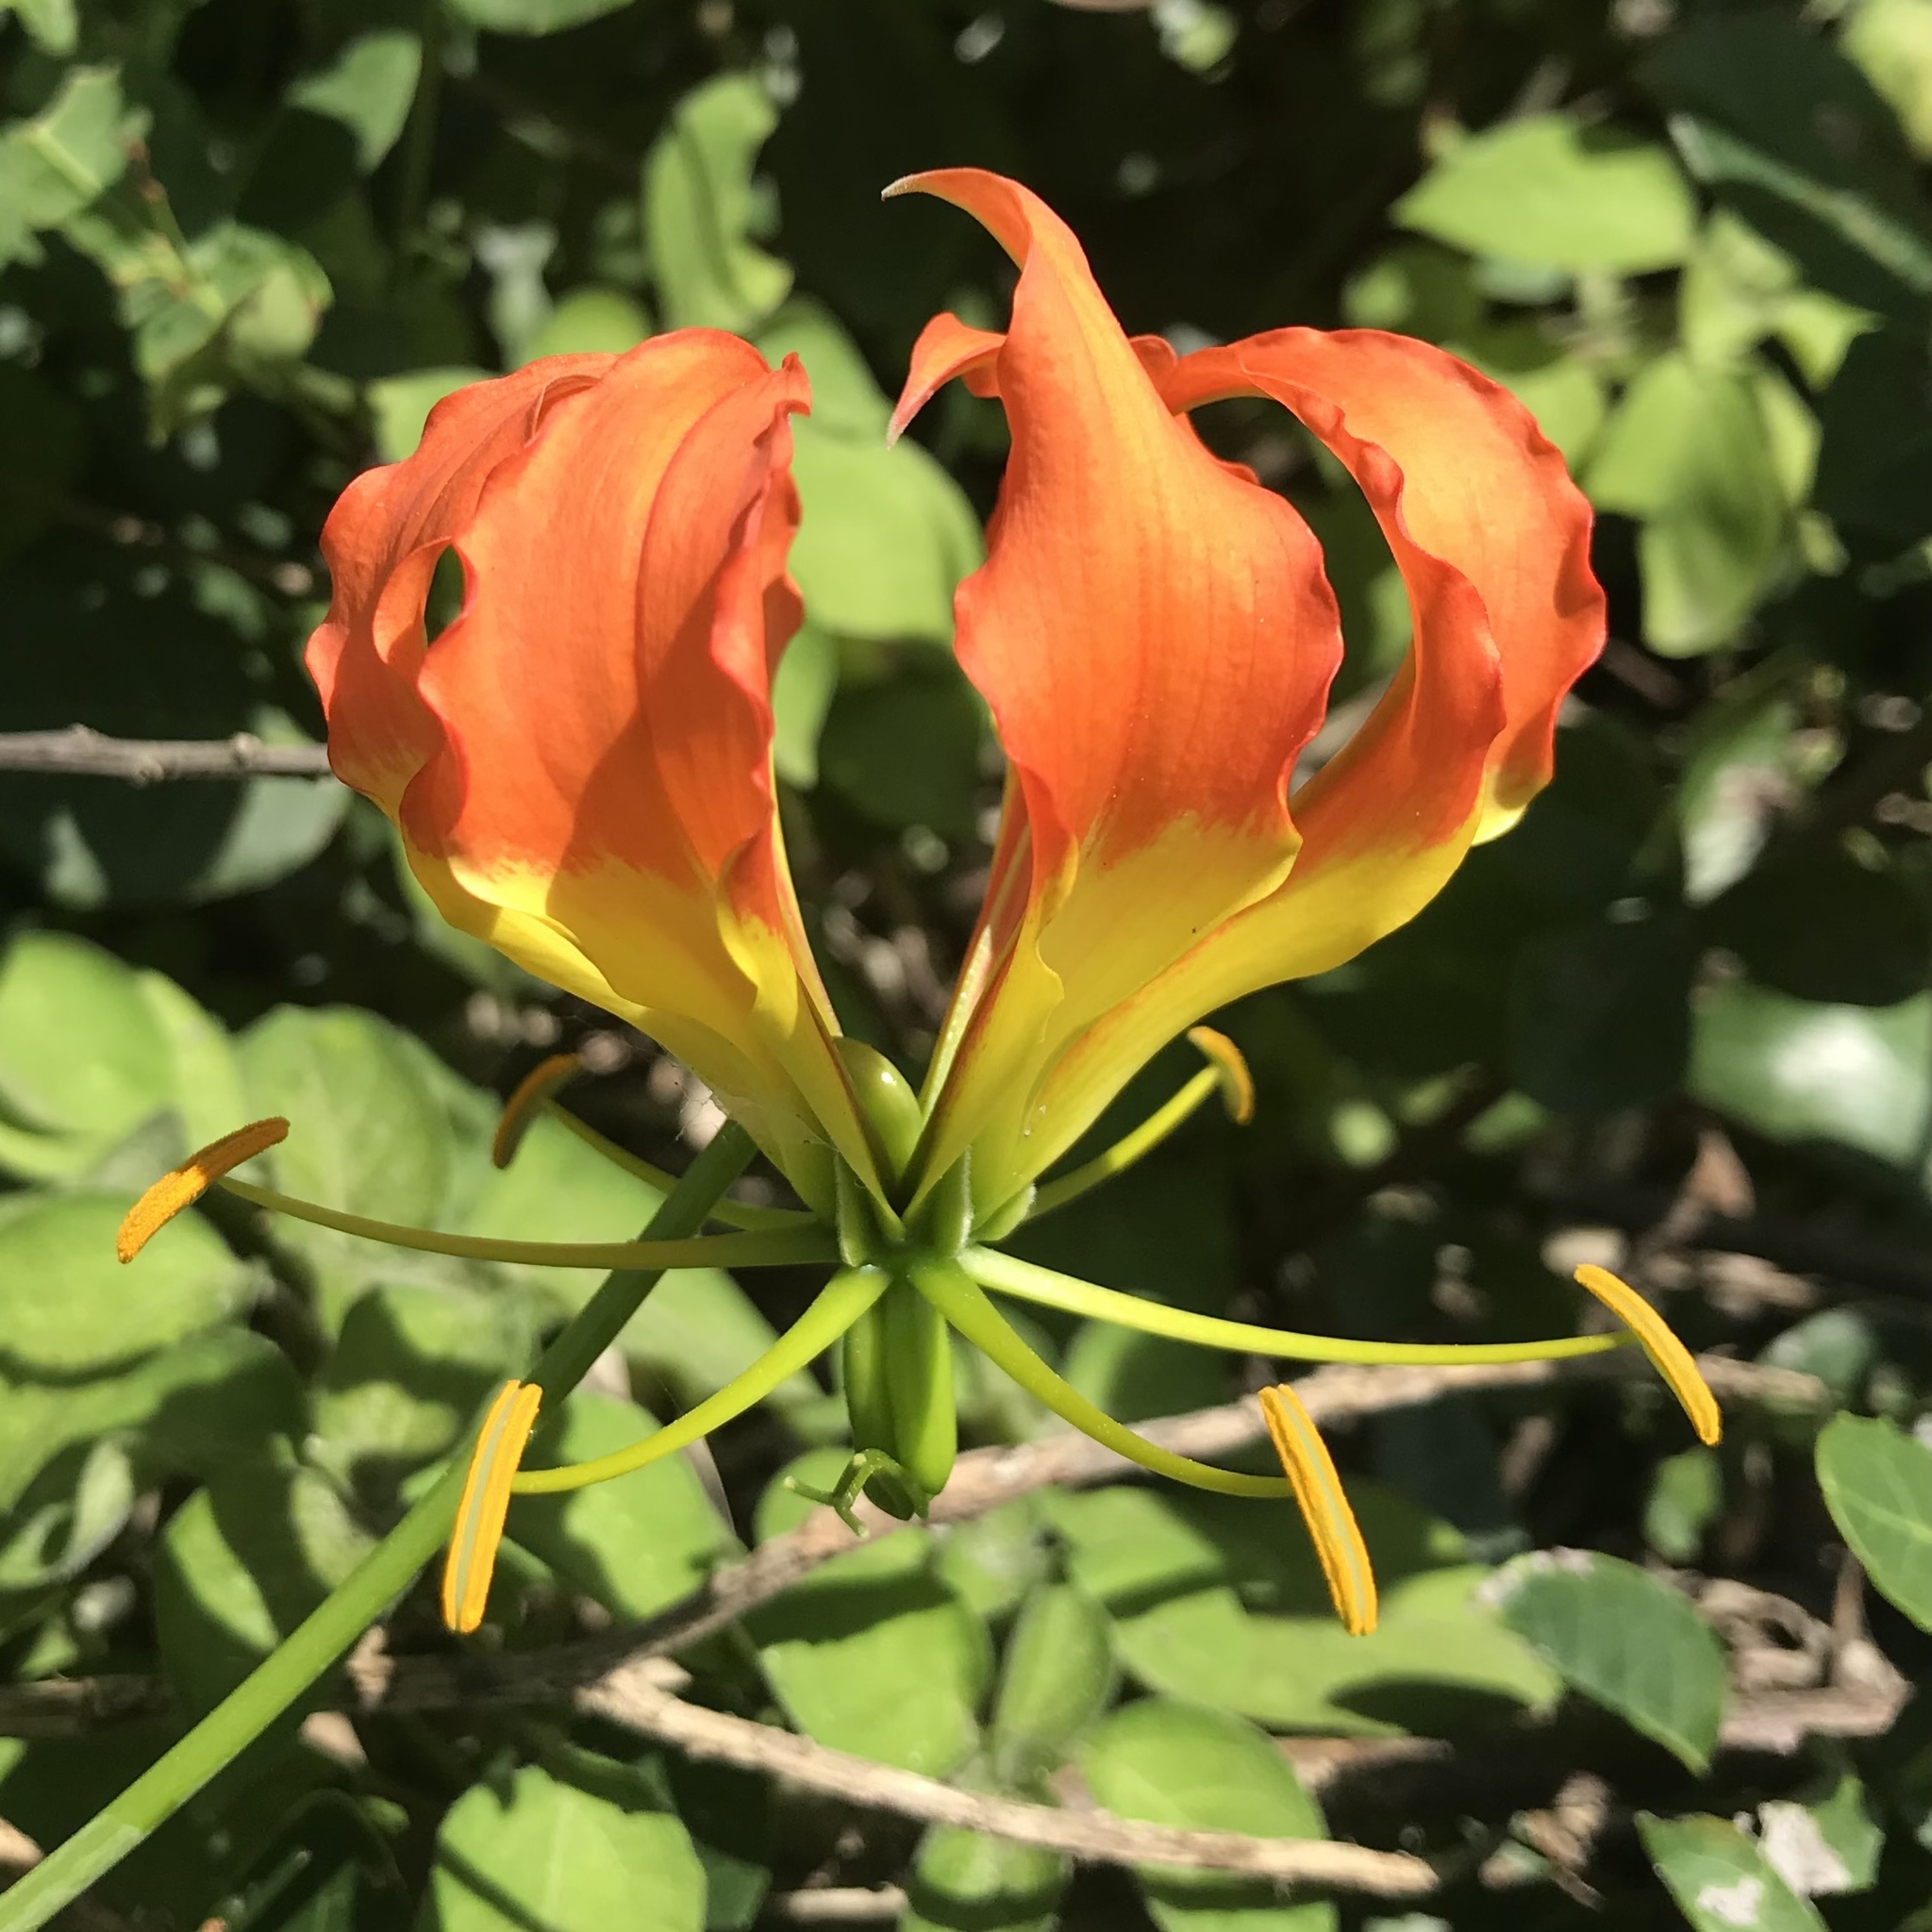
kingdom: Plantae
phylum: Tracheophyta
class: Liliopsida
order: Liliales
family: Colchicaceae
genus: Gloriosa
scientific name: Gloriosa superba
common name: Flame lily
